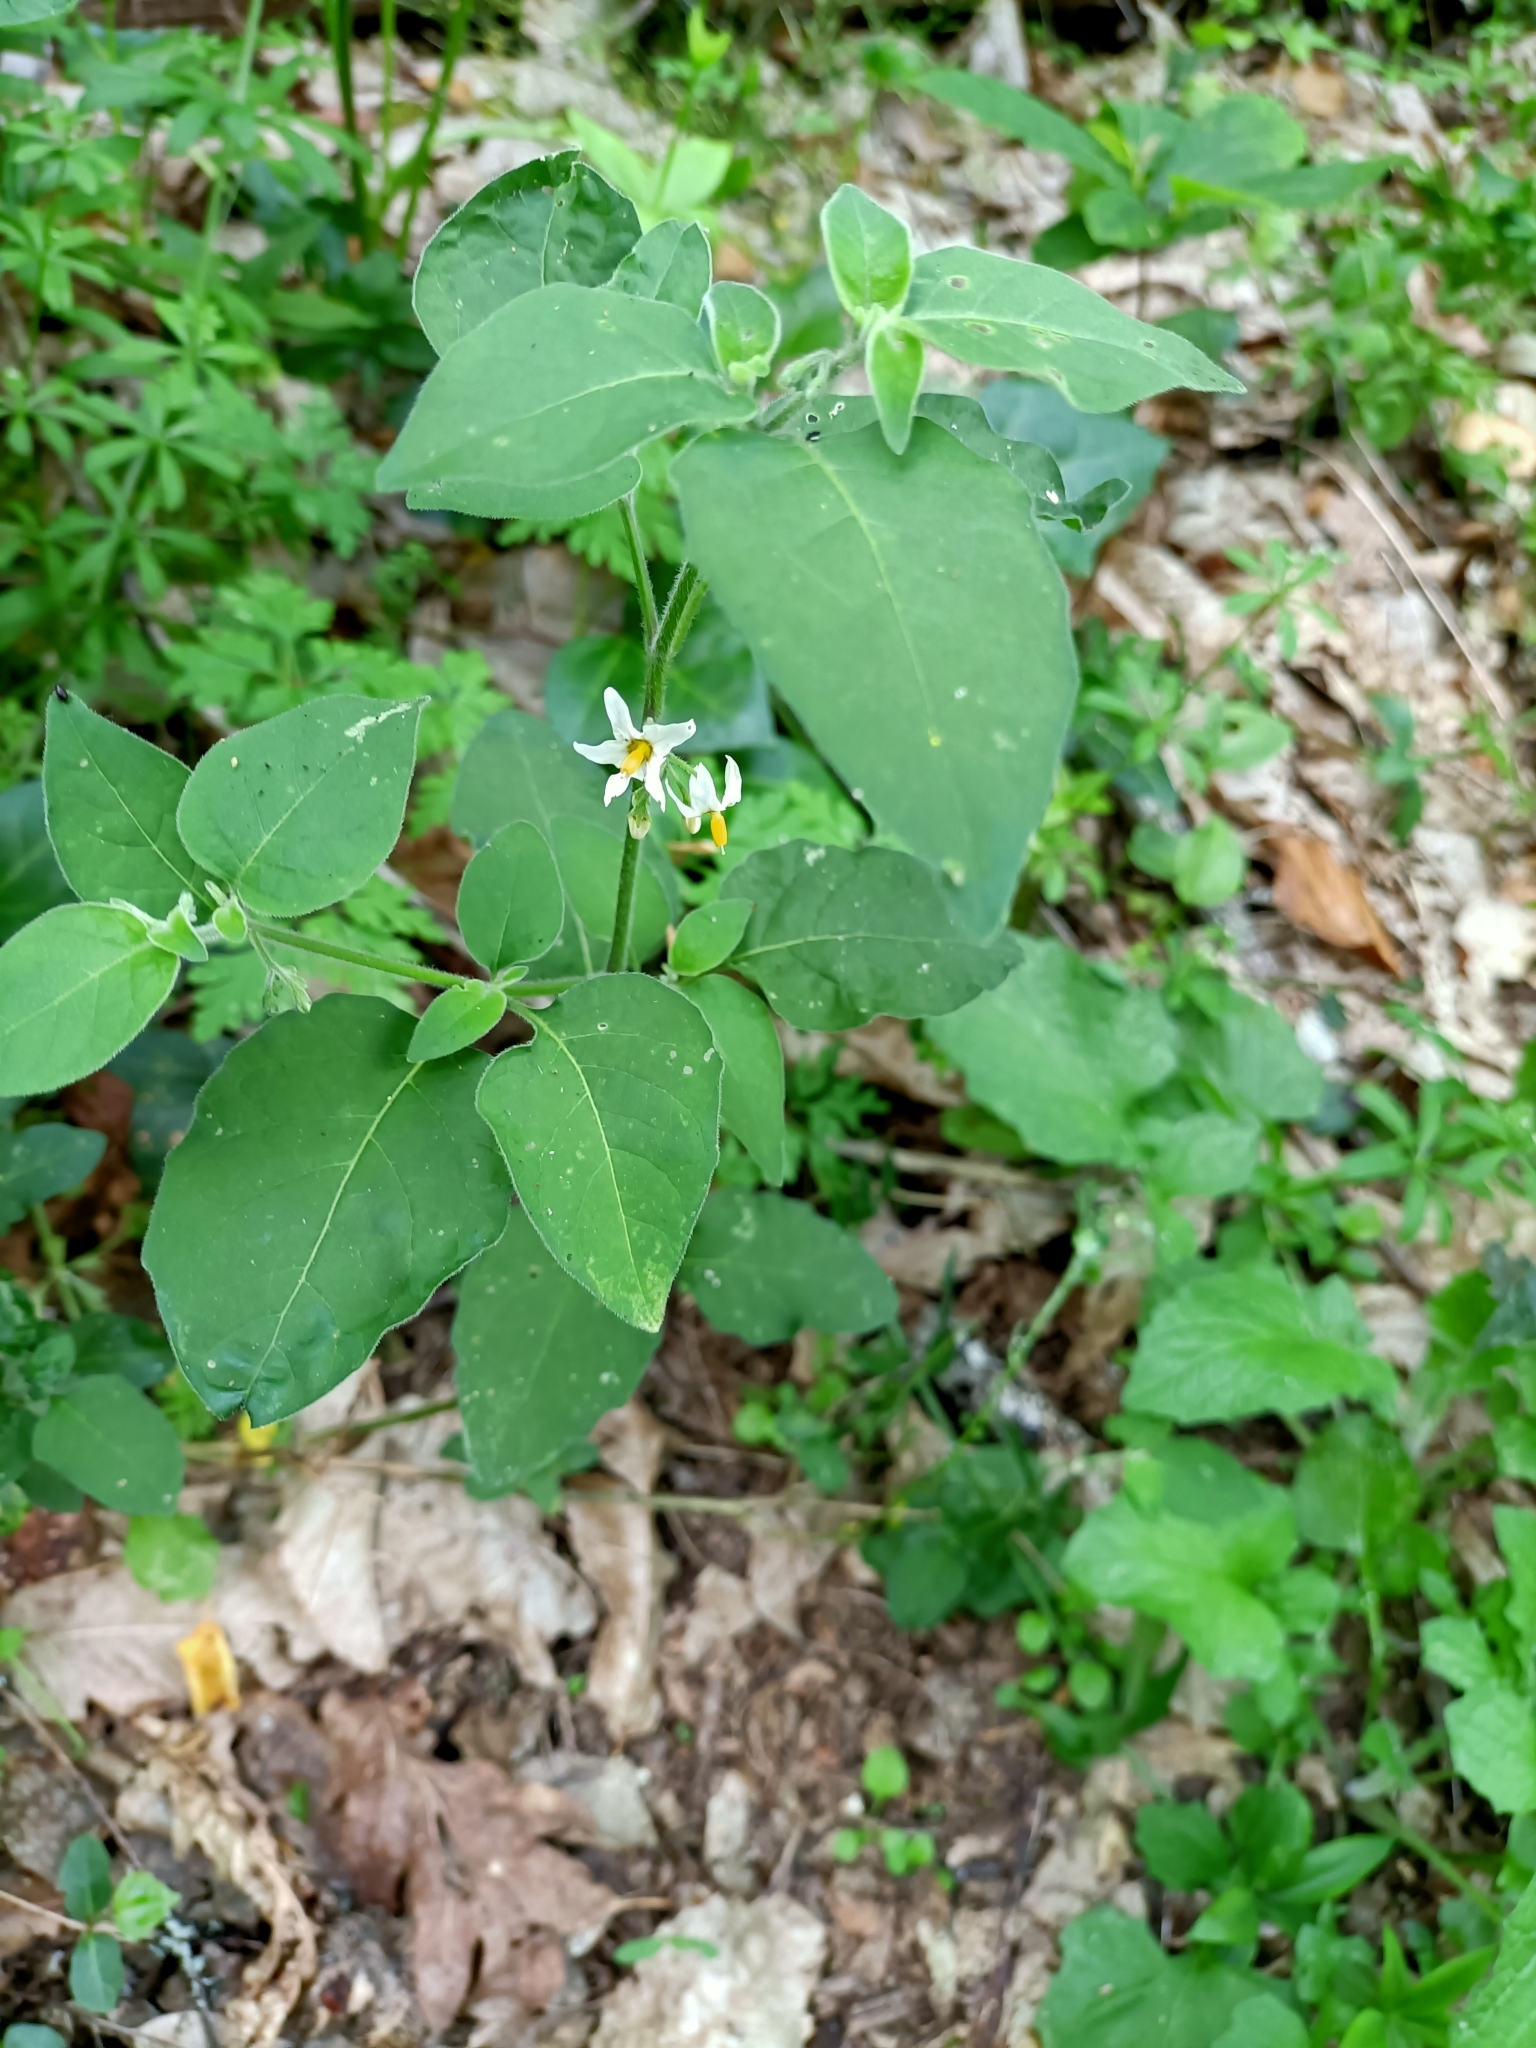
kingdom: Plantae
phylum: Tracheophyta
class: Magnoliopsida
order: Solanales
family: Solanaceae
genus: Solanum
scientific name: Solanum chenopodioides
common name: Tall nightshade
